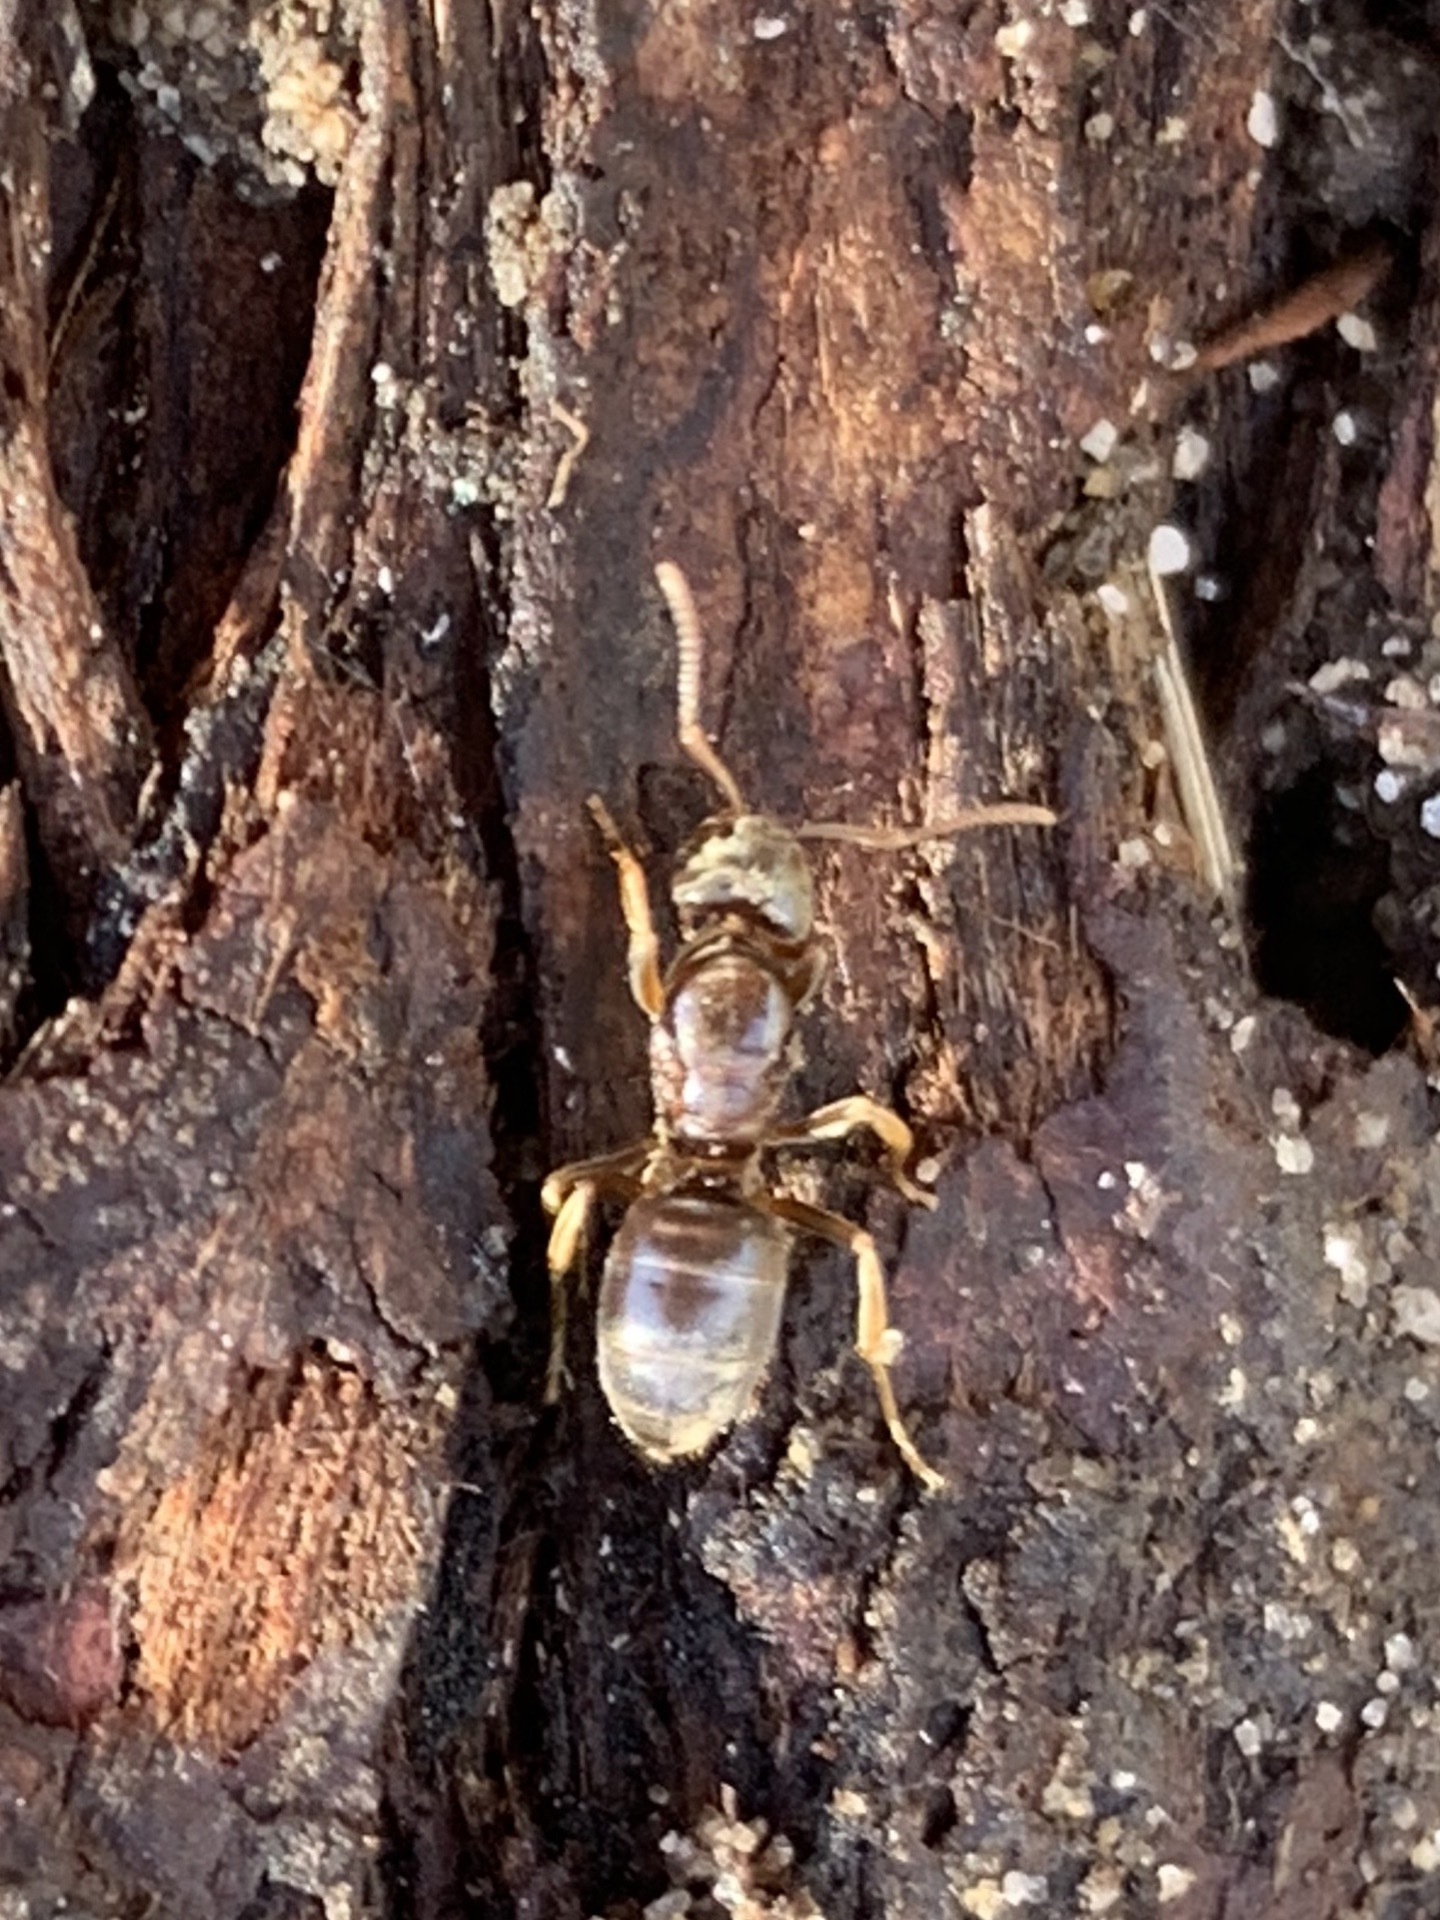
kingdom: Animalia
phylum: Arthropoda
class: Insecta
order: Hymenoptera
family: Formicidae
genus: Lasius
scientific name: Lasius aphidicola
